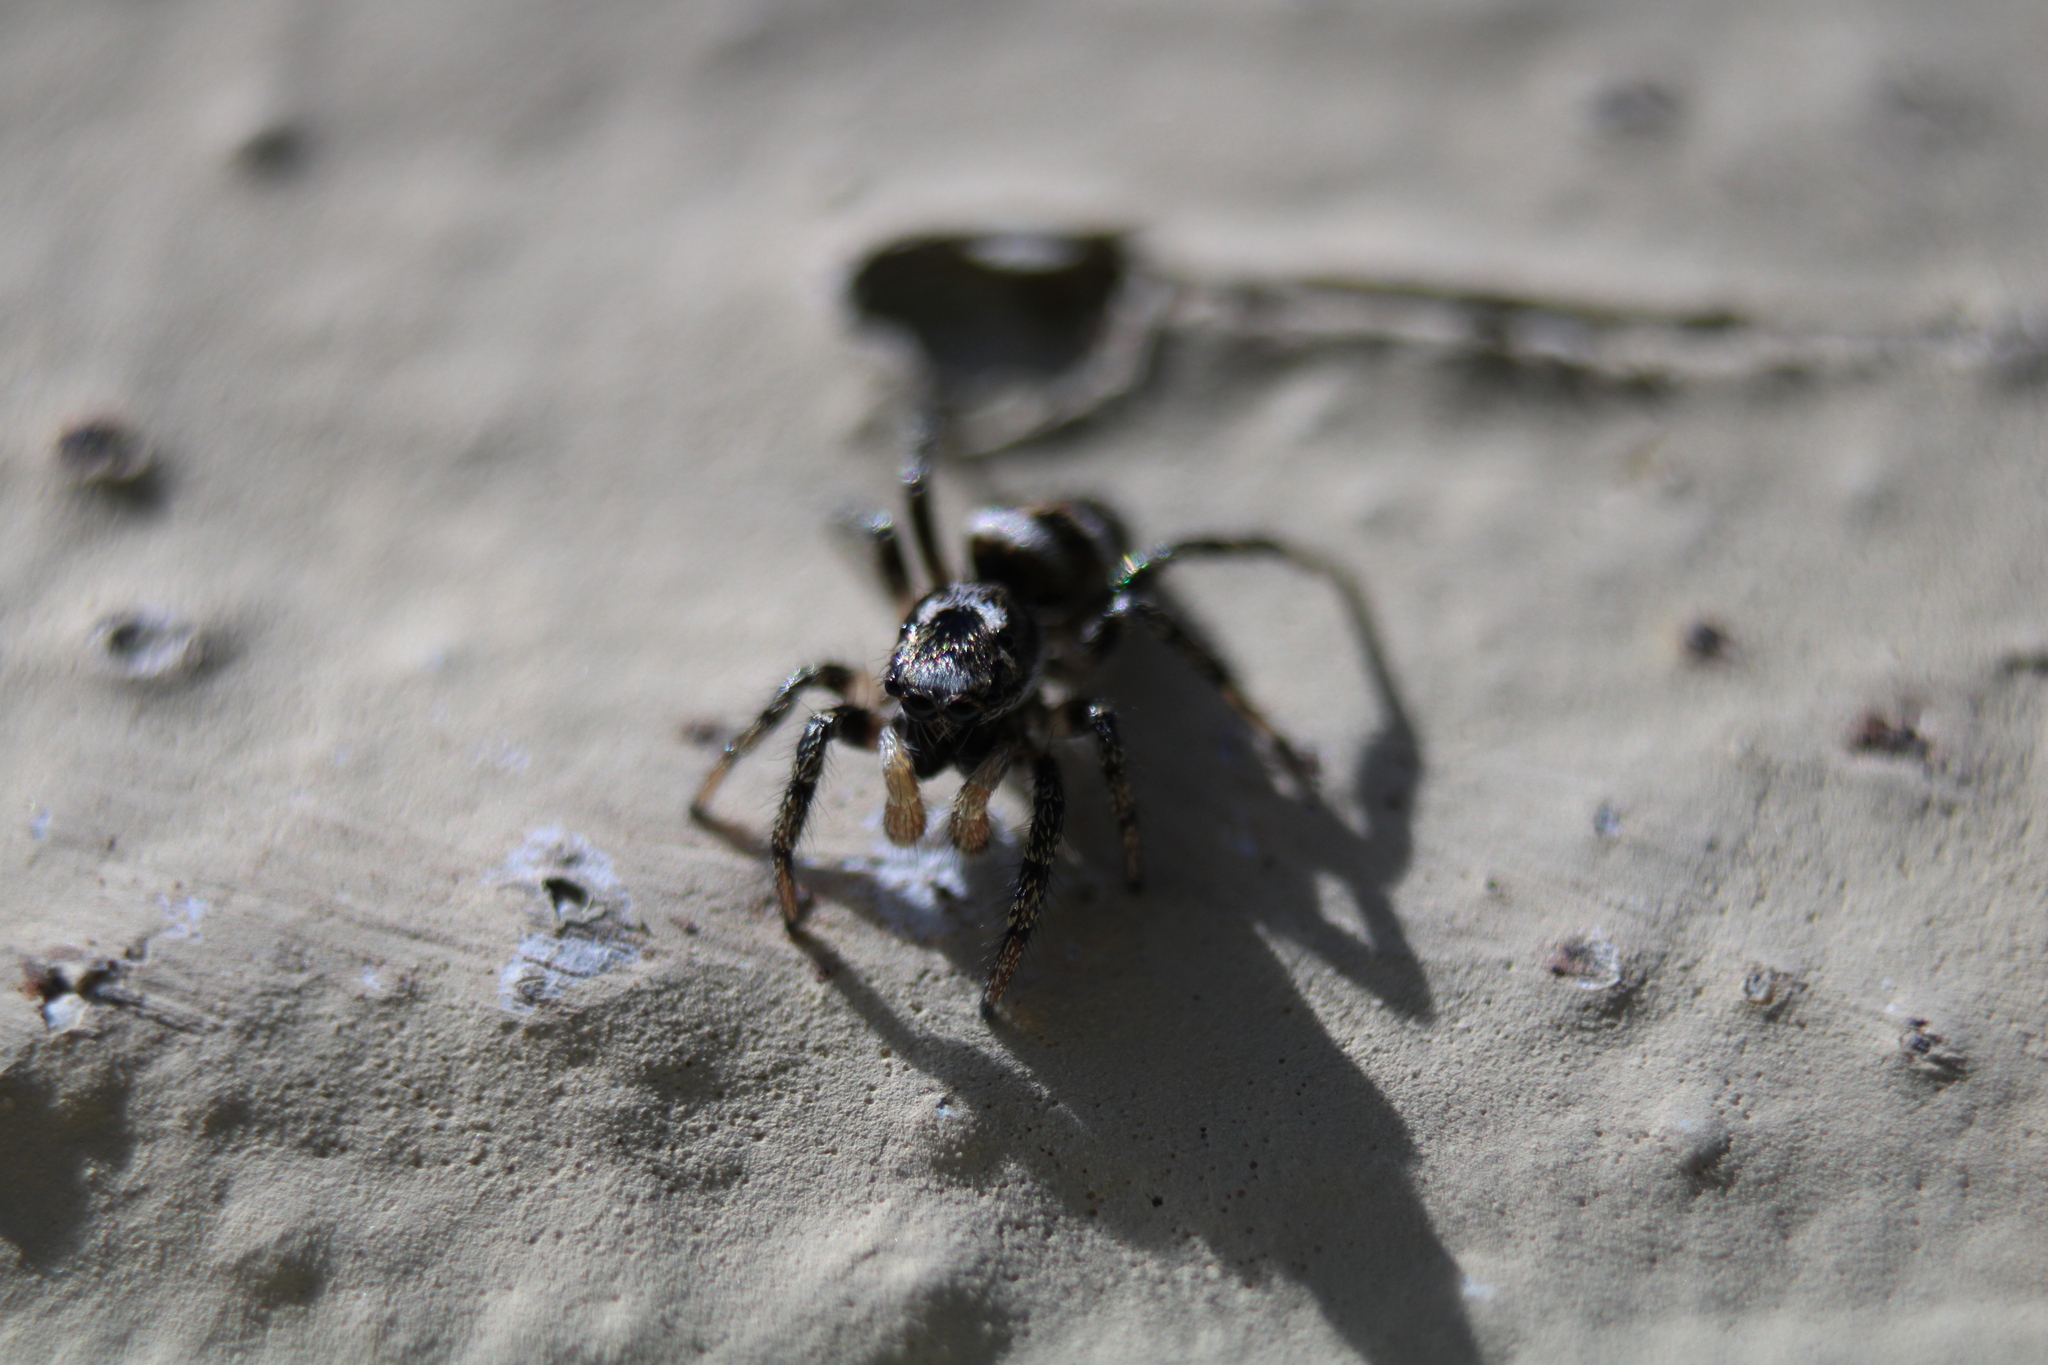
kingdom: Animalia
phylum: Arthropoda
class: Arachnida
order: Araneae
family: Salticidae
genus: Salticus
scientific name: Salticus scenicus
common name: Zebra jumper
